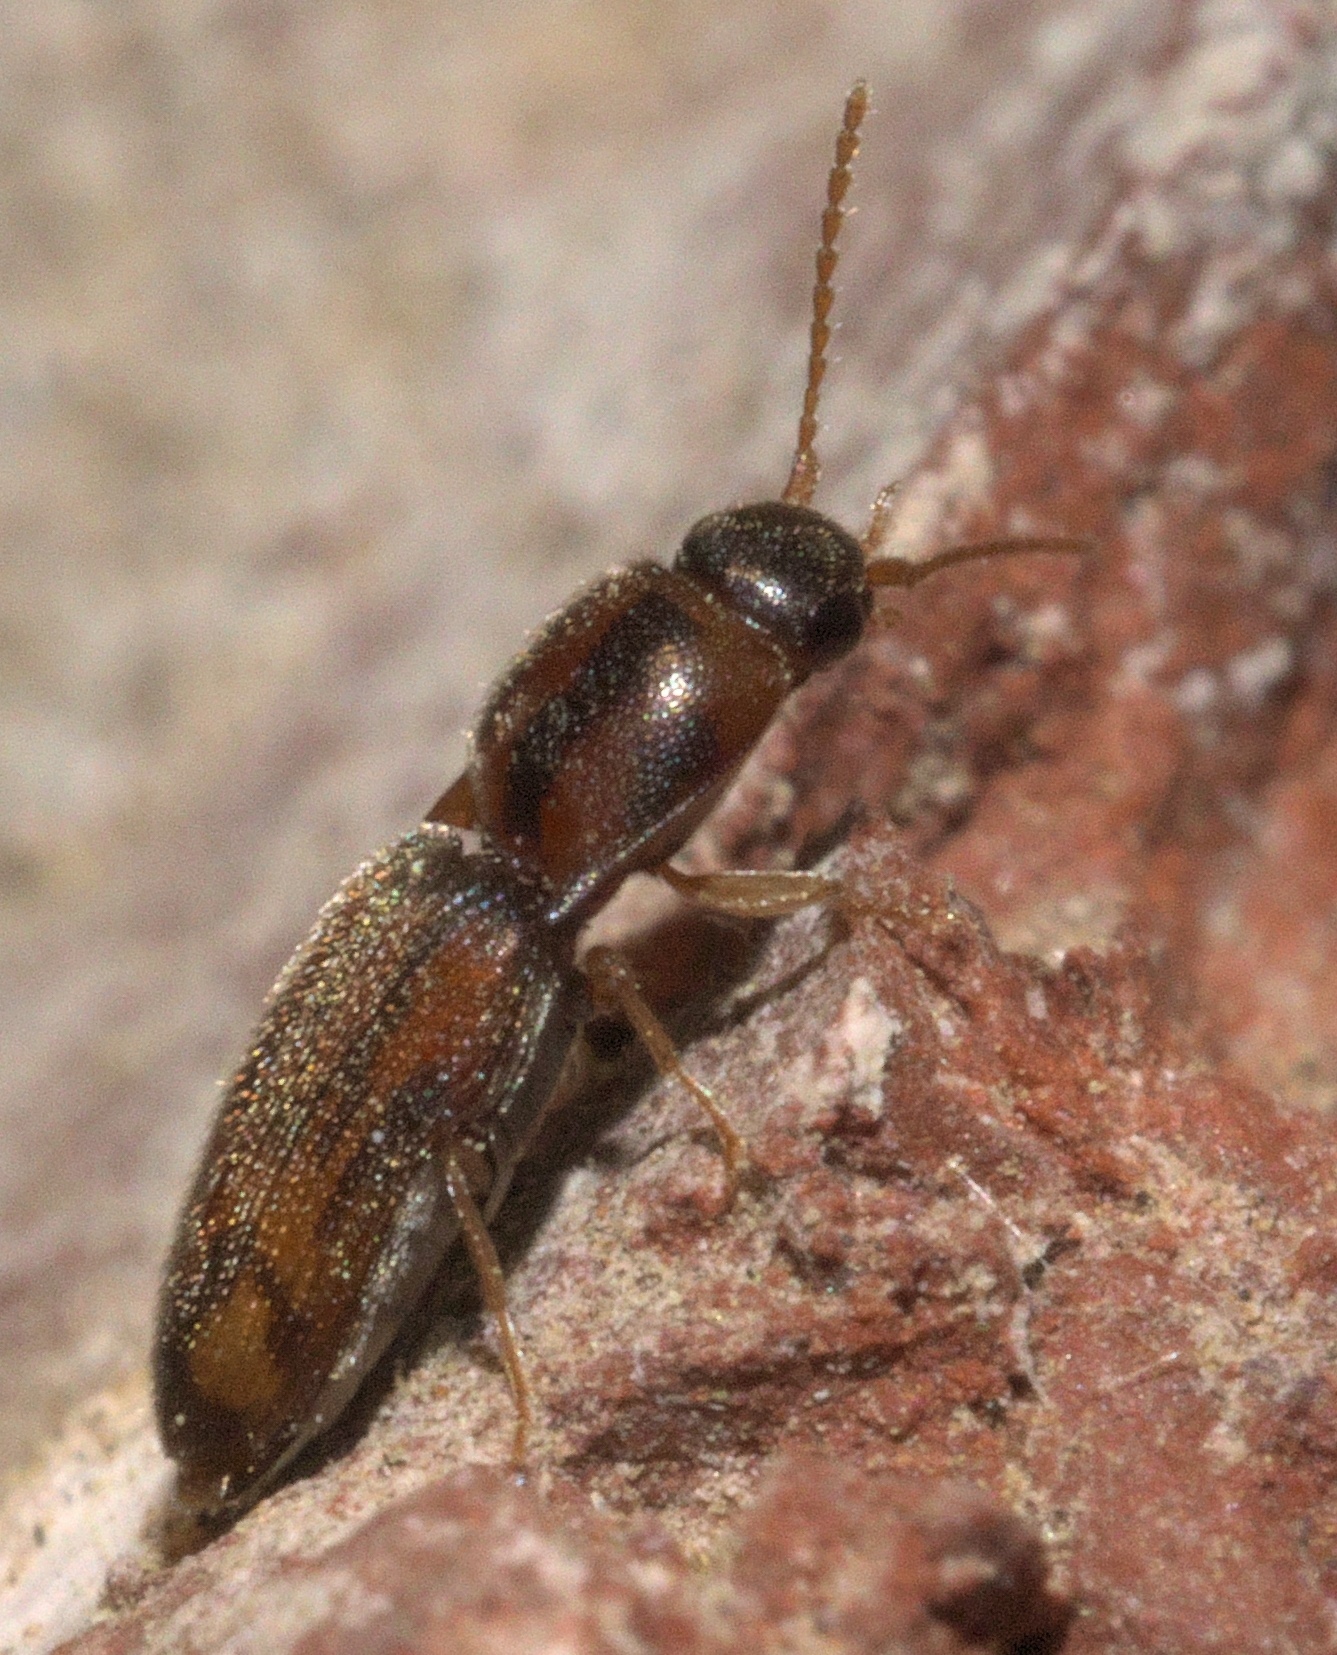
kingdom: Animalia
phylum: Arthropoda
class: Insecta
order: Coleoptera
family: Elateridae
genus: Monocrepidius
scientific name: Monocrepidius bellus
